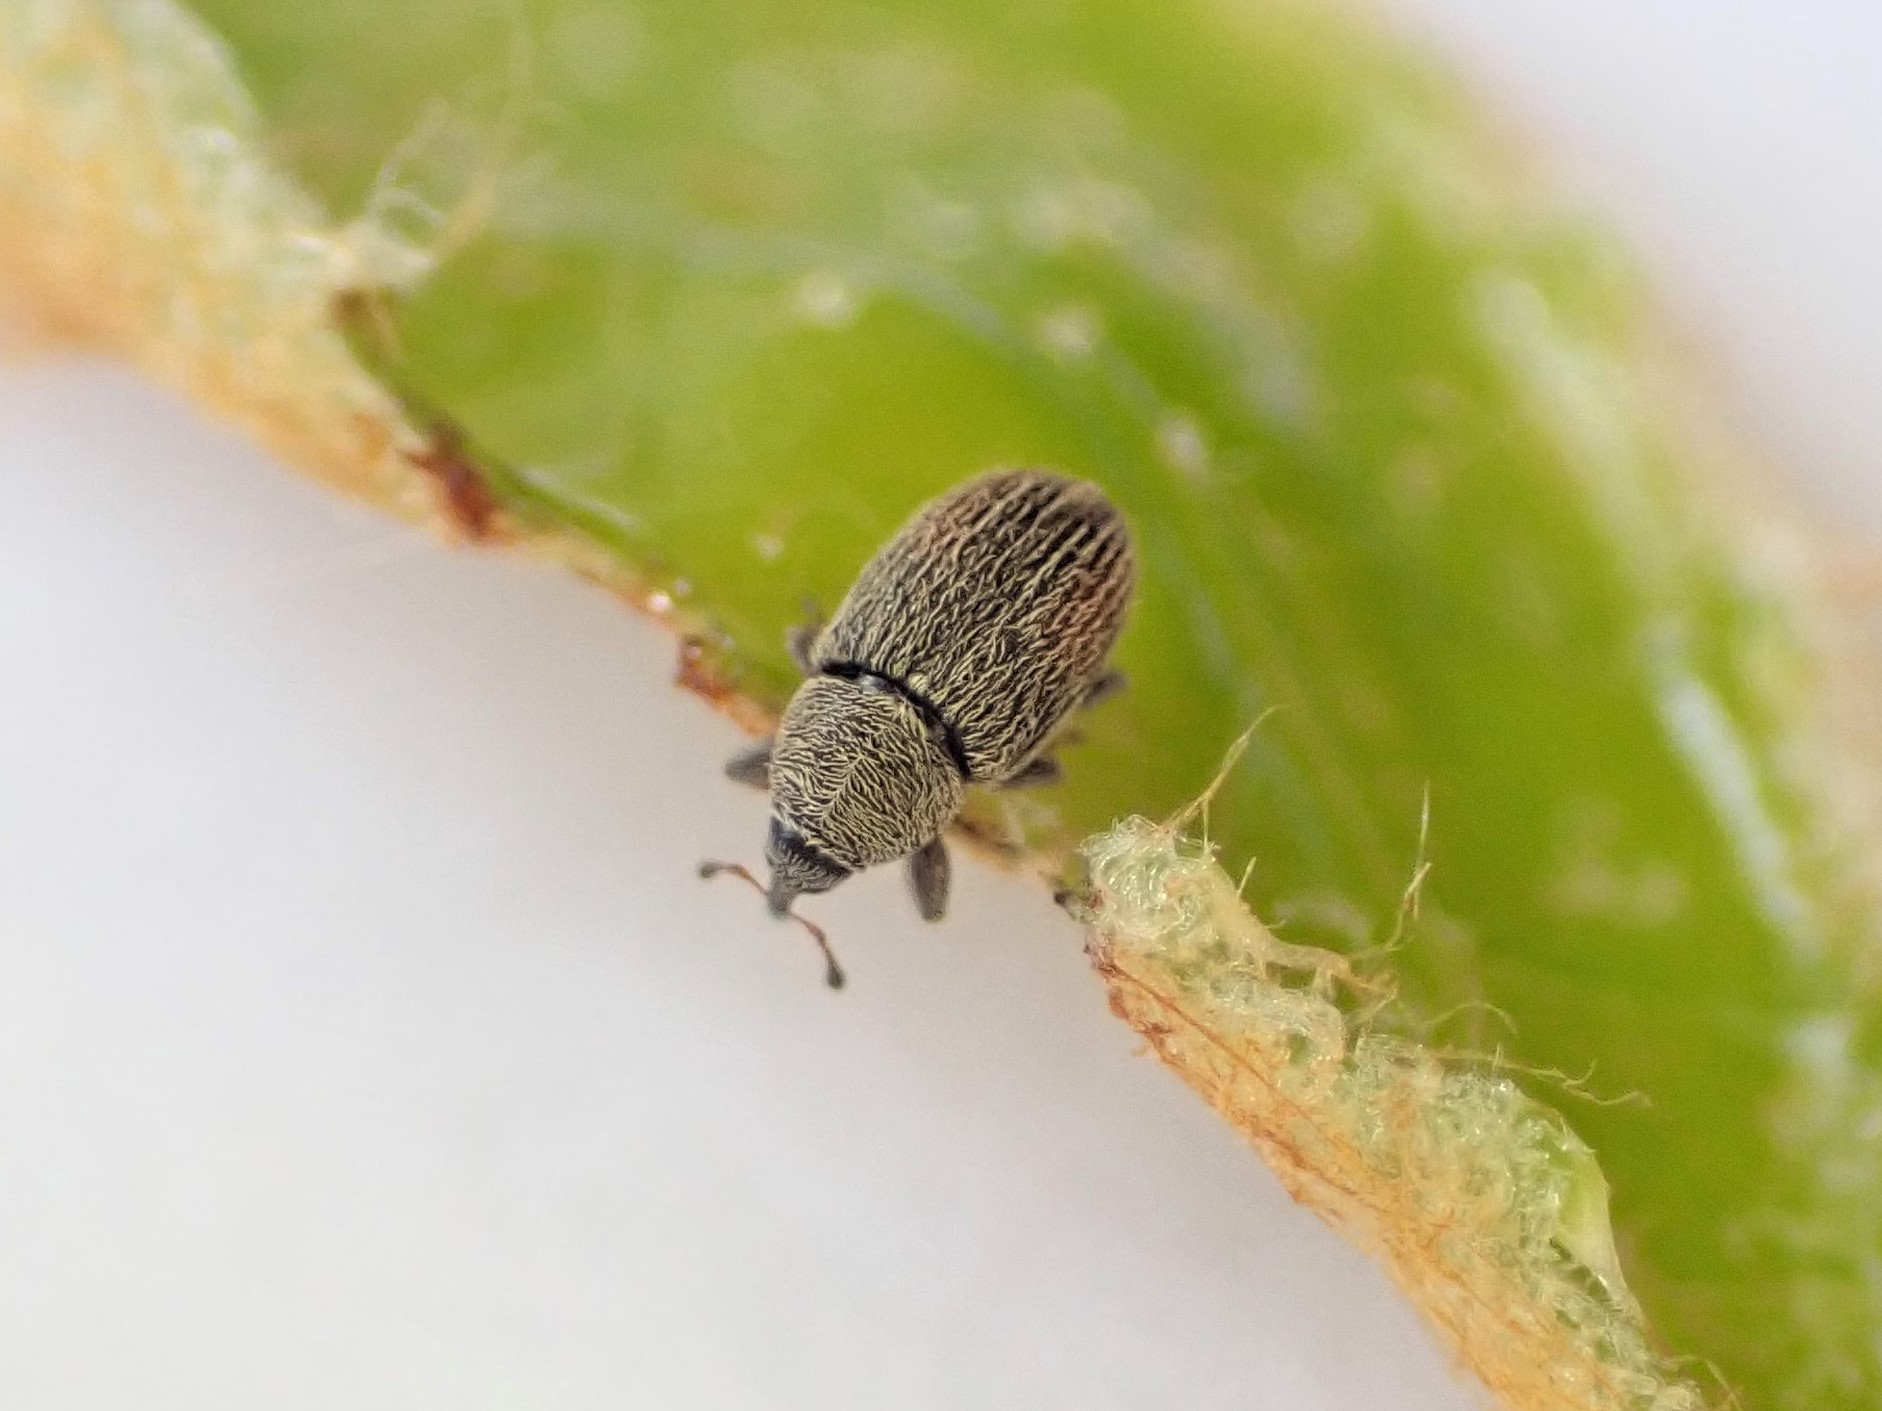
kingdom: Animalia
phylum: Arthropoda
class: Insecta
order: Coleoptera
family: Curculionidae
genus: Mecinus
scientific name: Mecinus pascuorum
